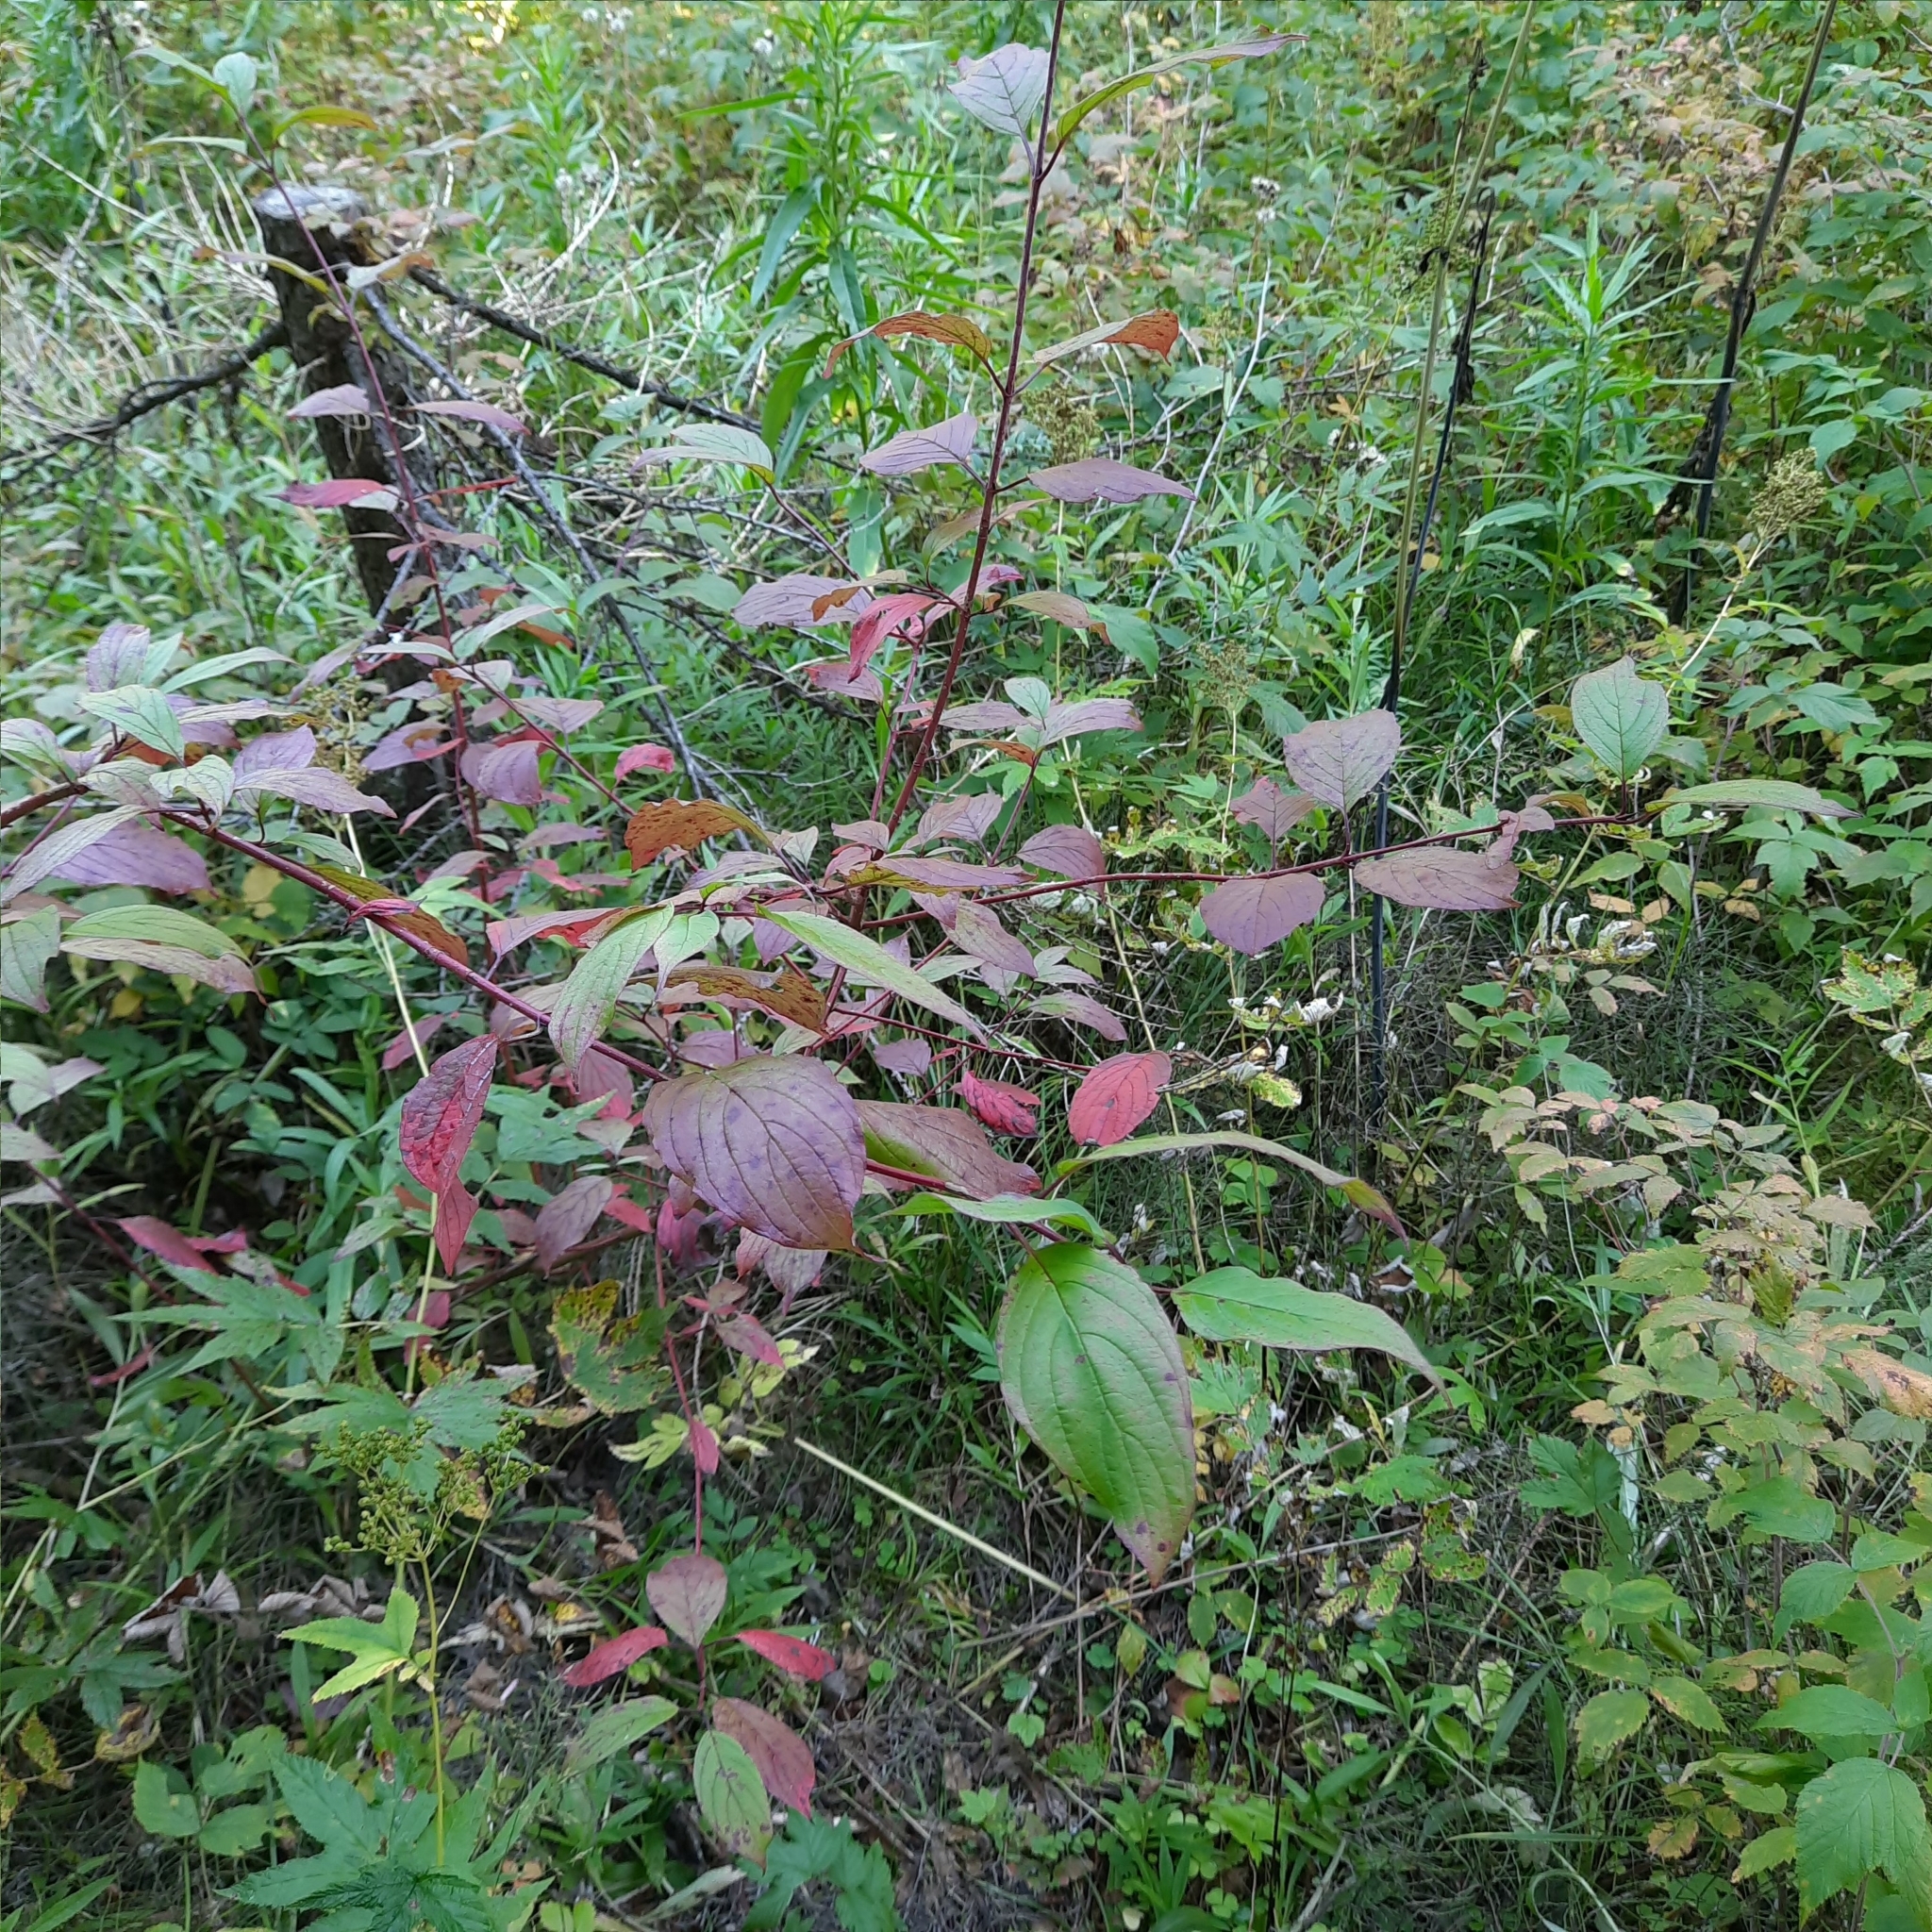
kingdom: Plantae
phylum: Tracheophyta
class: Magnoliopsida
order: Cornales
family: Cornaceae
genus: Cornus
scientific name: Cornus alba
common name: White dogwood
